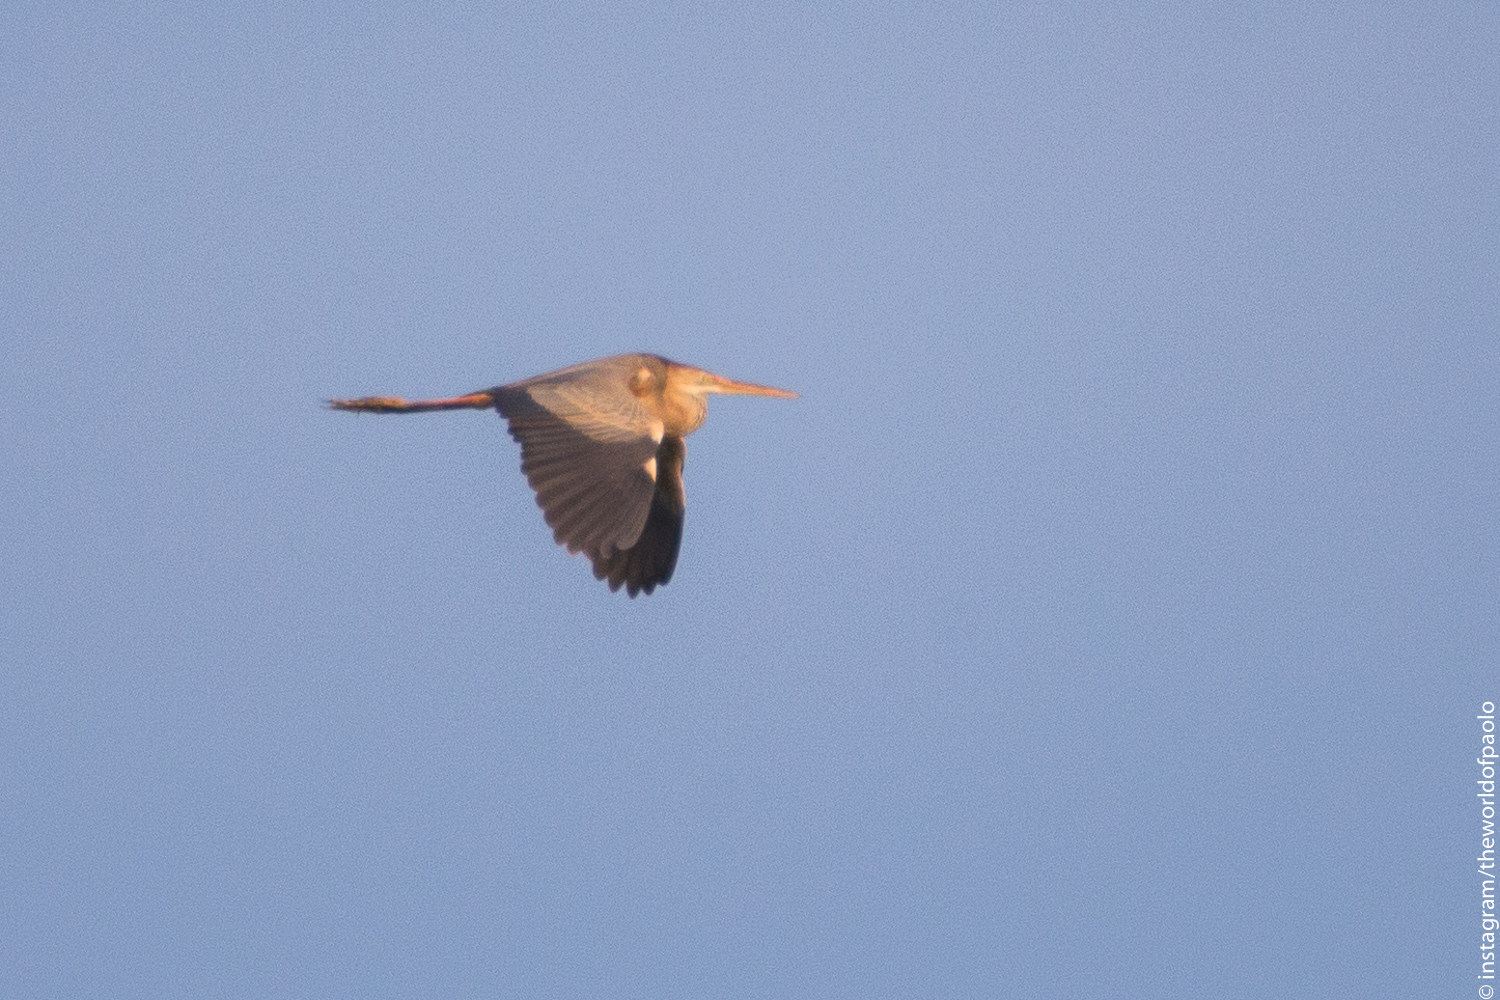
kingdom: Animalia
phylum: Chordata
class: Aves
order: Pelecaniformes
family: Ardeidae
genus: Ardea
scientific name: Ardea purpurea
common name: Purple heron
